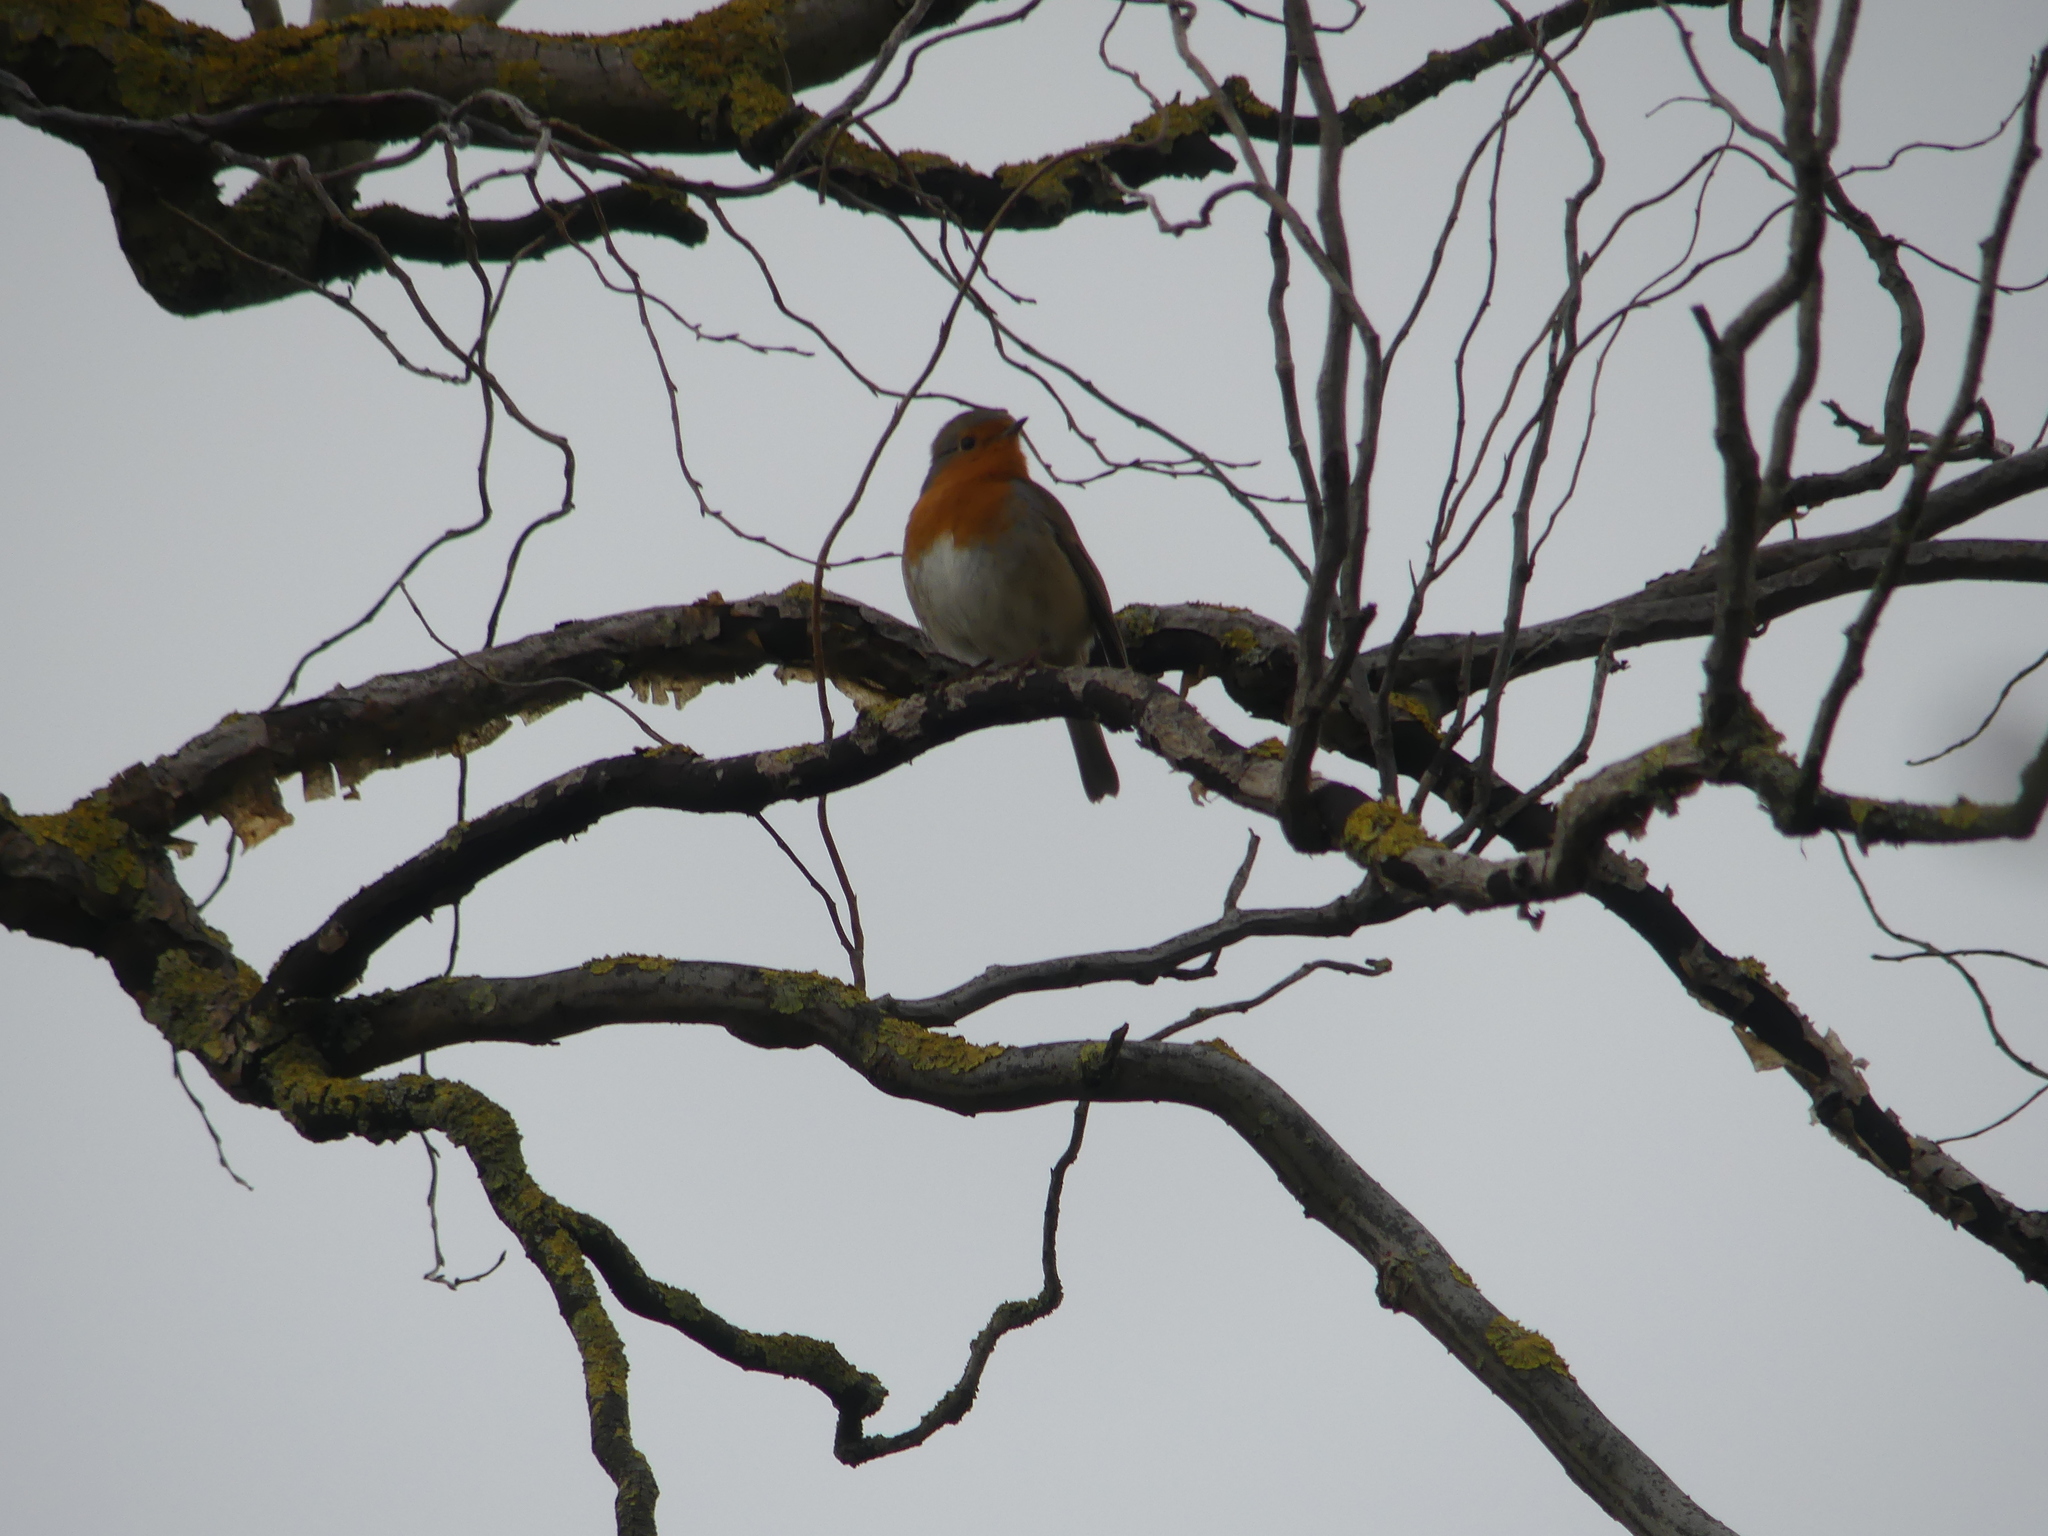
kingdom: Animalia
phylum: Chordata
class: Aves
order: Passeriformes
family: Muscicapidae
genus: Erithacus
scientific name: Erithacus rubecula
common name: European robin
